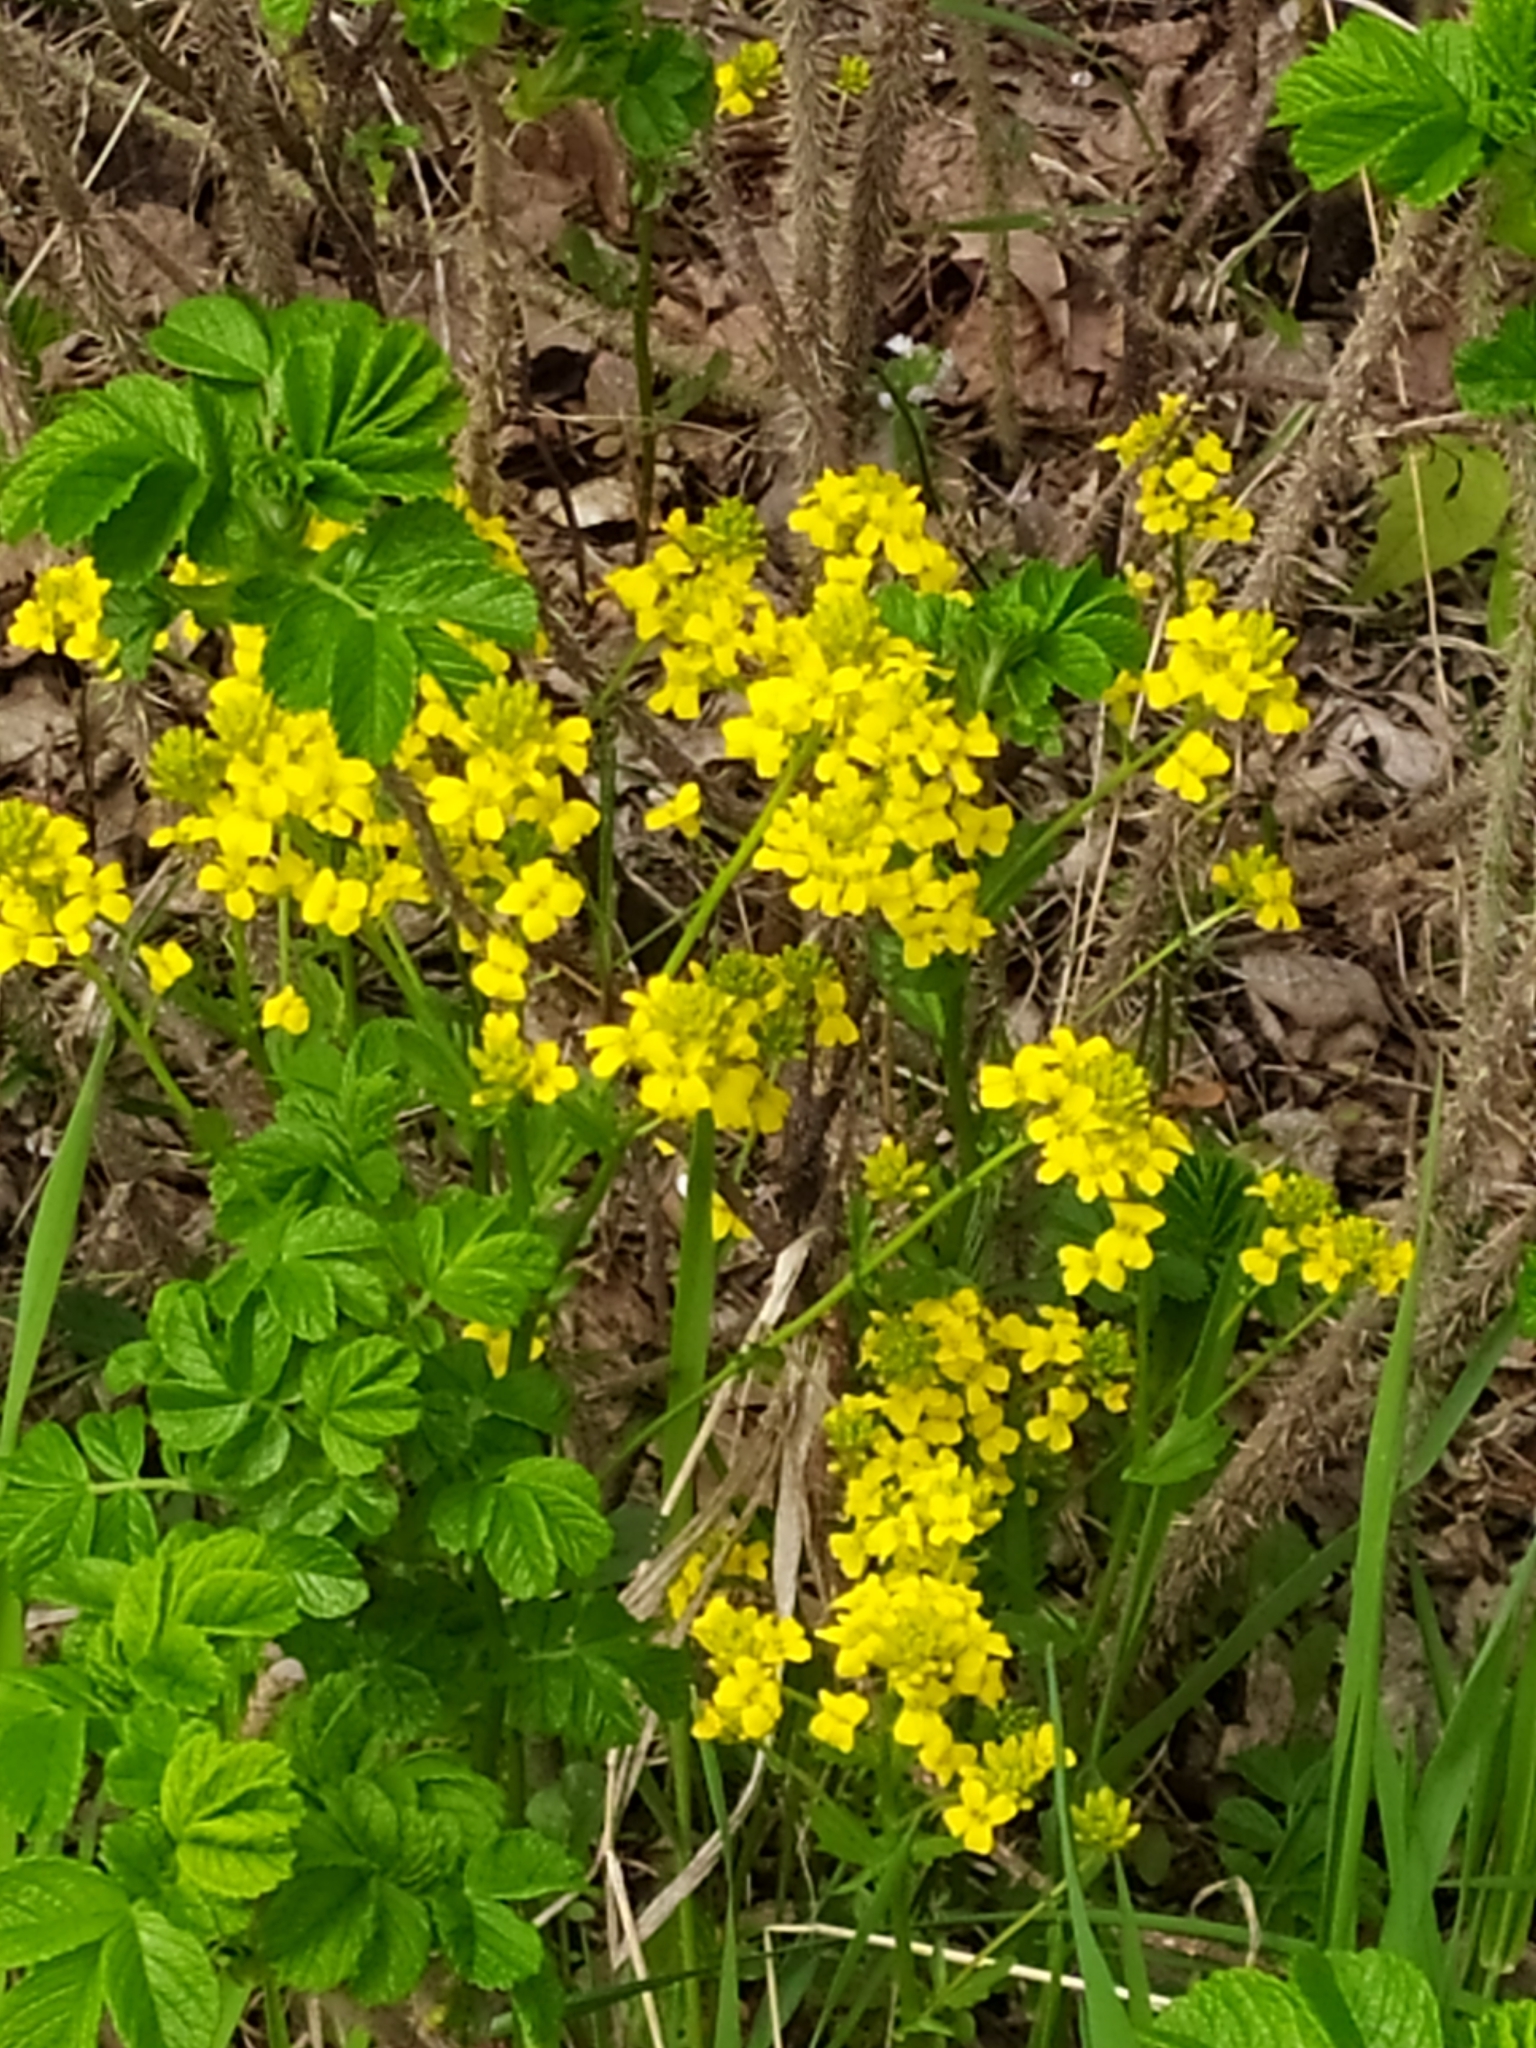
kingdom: Plantae
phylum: Tracheophyta
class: Magnoliopsida
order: Brassicales
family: Brassicaceae
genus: Barbarea
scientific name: Barbarea vulgaris
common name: Cressy-greens
